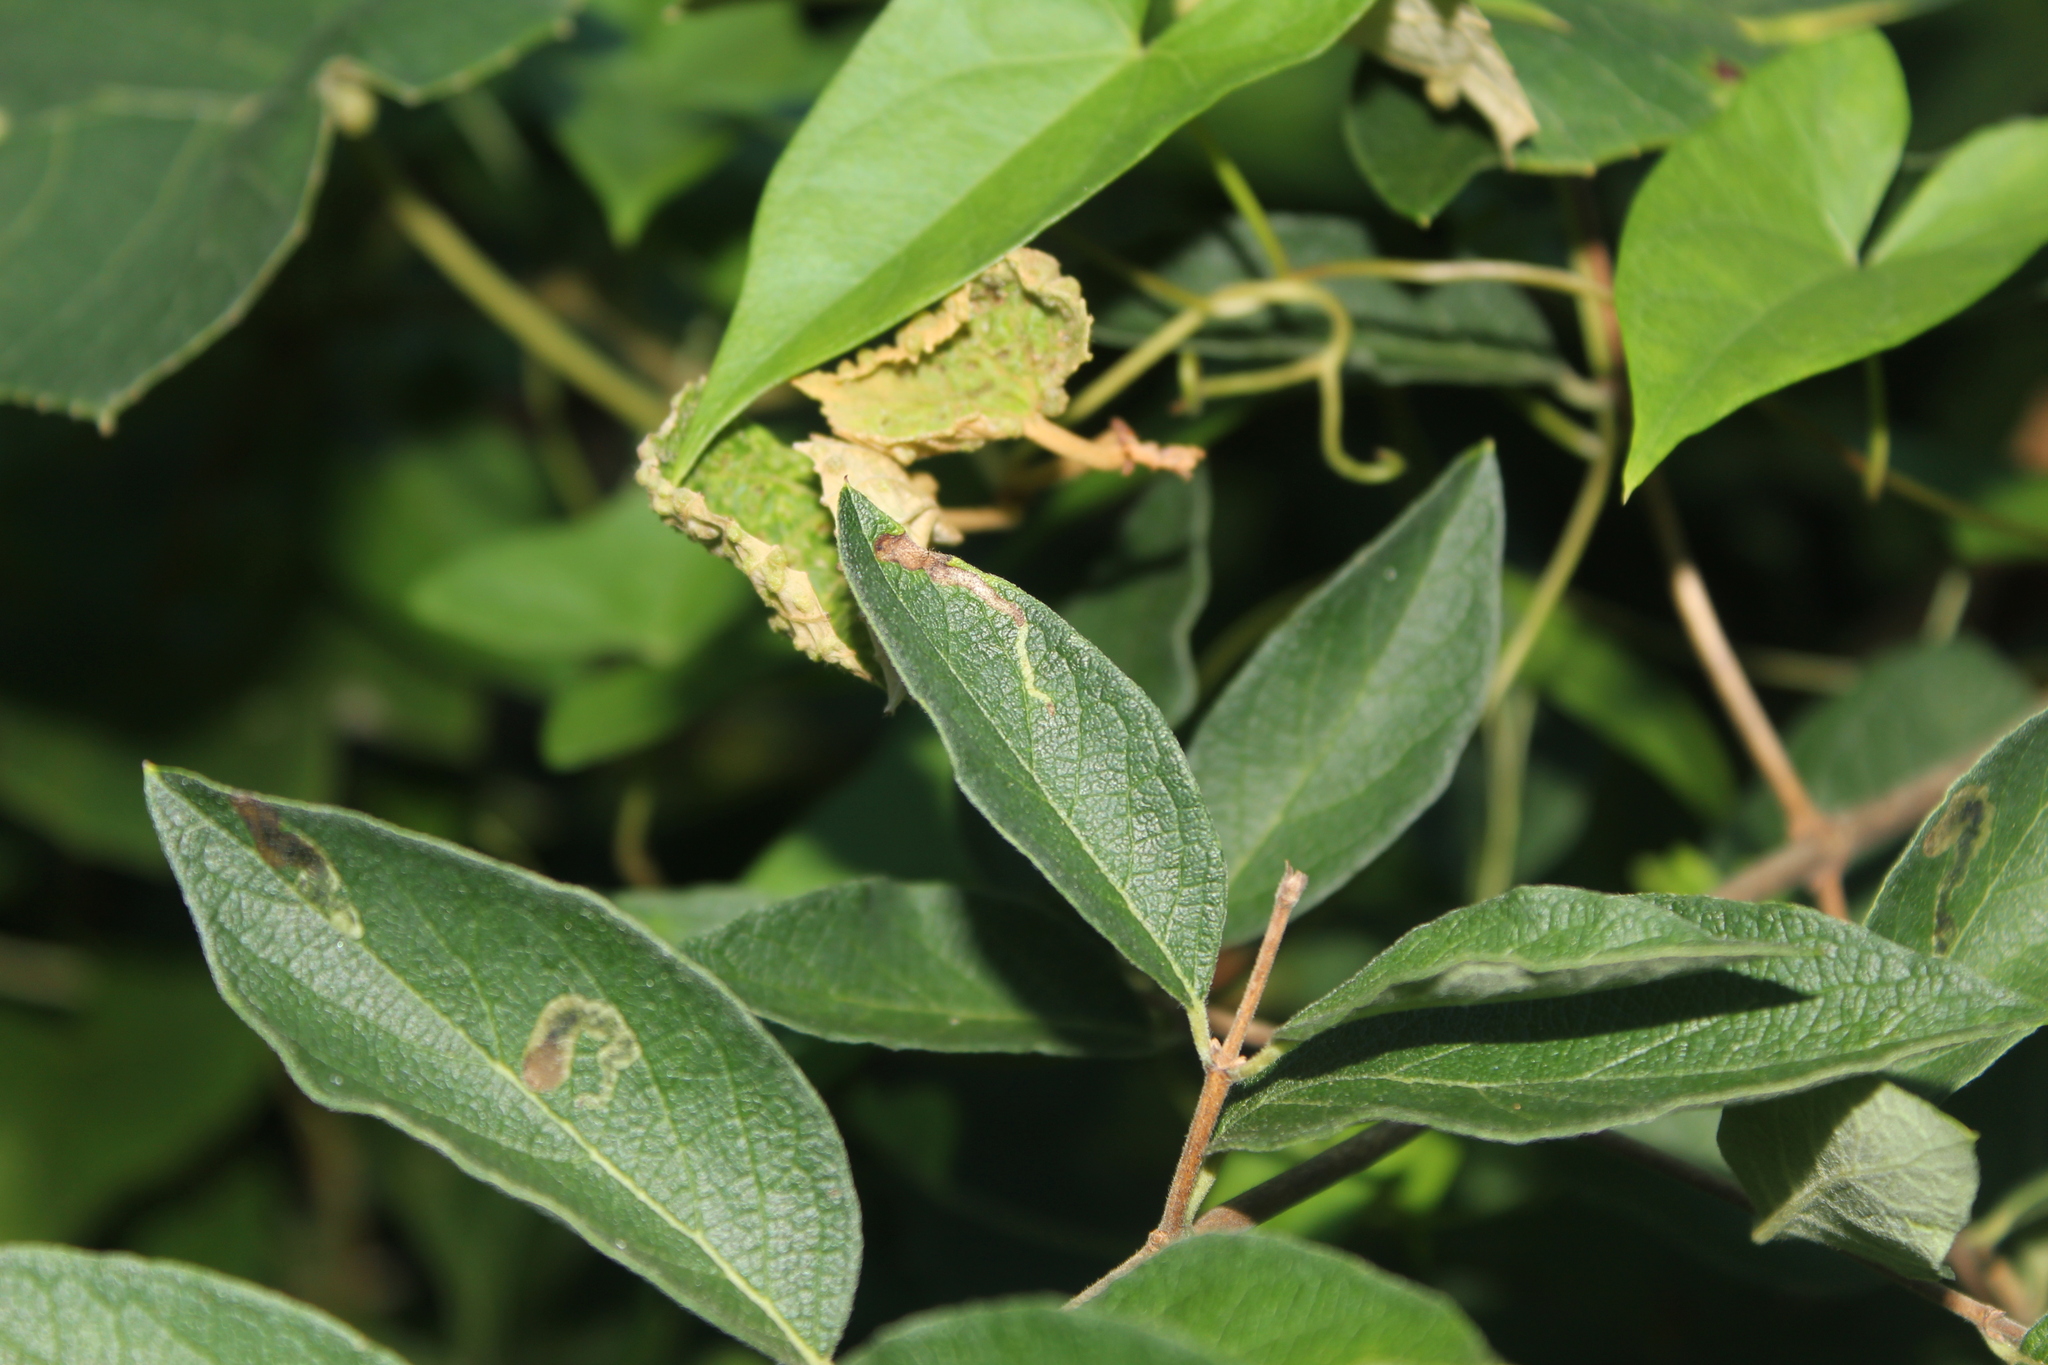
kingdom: Animalia
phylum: Arthropoda
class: Insecta
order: Diptera
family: Agromyzidae
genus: Aulagromyza
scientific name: Aulagromyza
